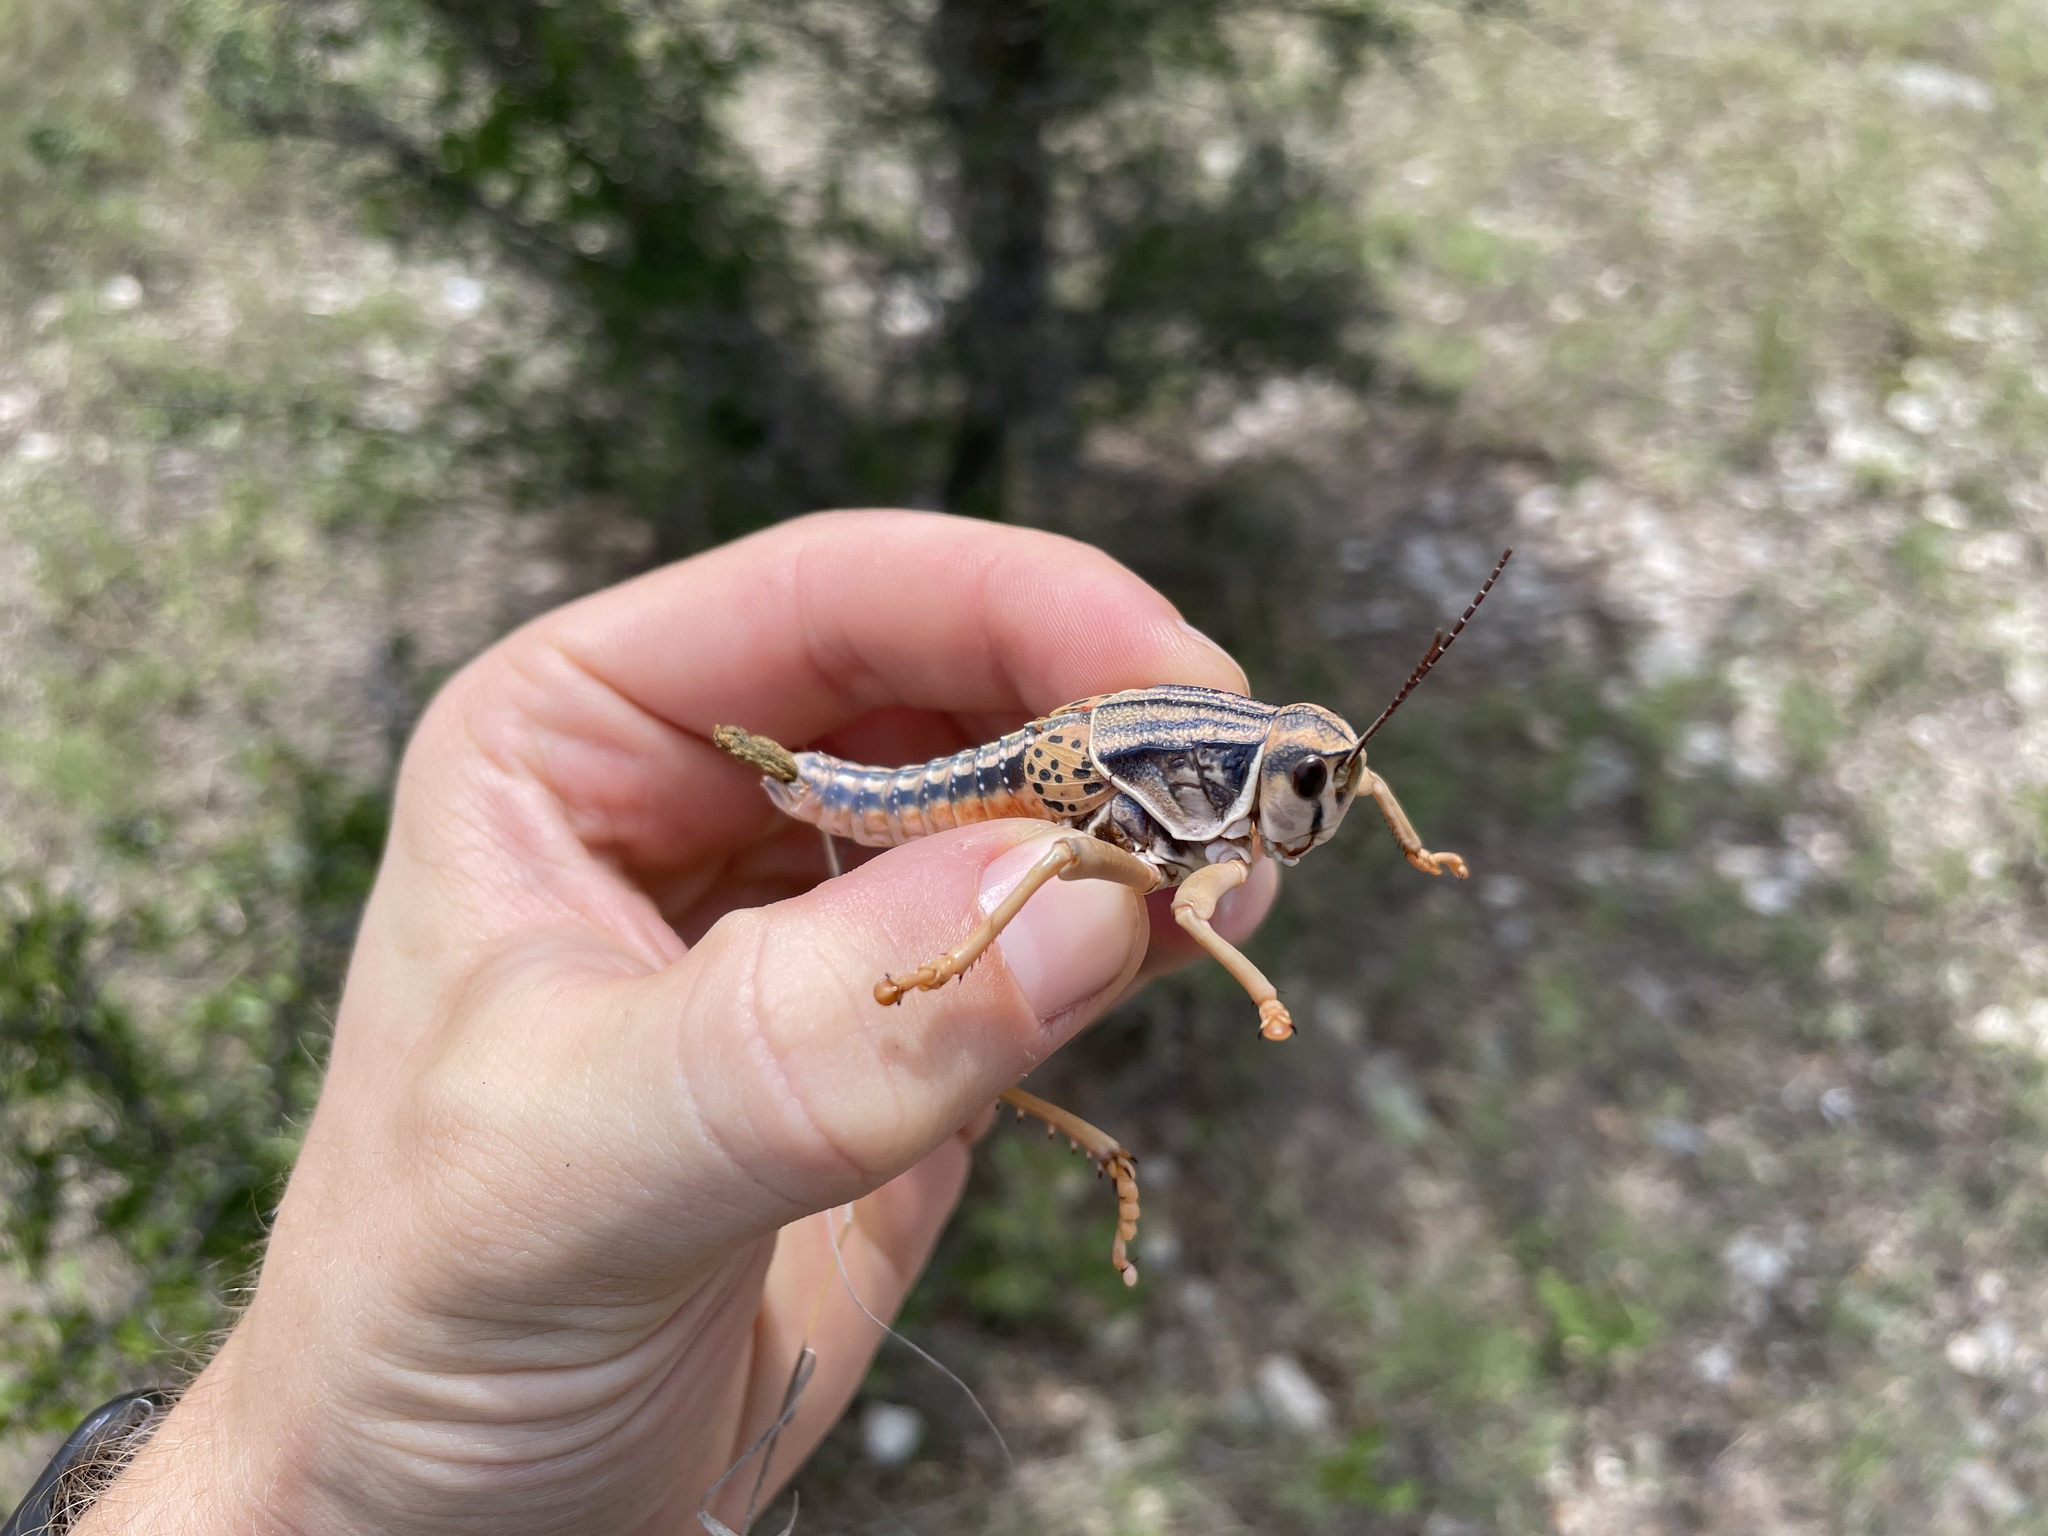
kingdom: Animalia
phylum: Arthropoda
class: Insecta
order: Orthoptera
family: Romaleidae
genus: Brachystola
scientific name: Brachystola magna
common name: Plains lubber grasshopper
